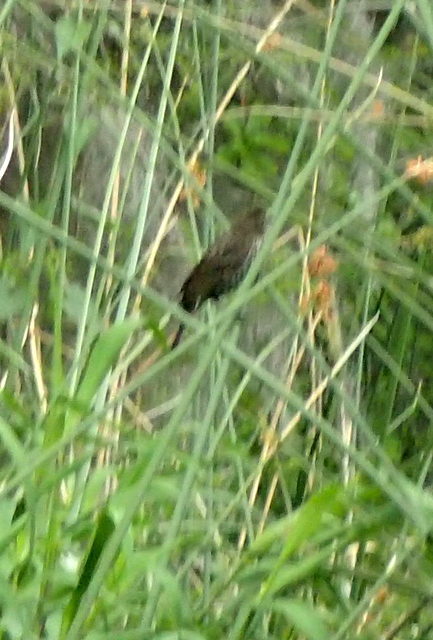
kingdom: Animalia
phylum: Chordata
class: Aves
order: Passeriformes
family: Icteridae
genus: Agelaius
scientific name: Agelaius phoeniceus
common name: Red-winged blackbird
